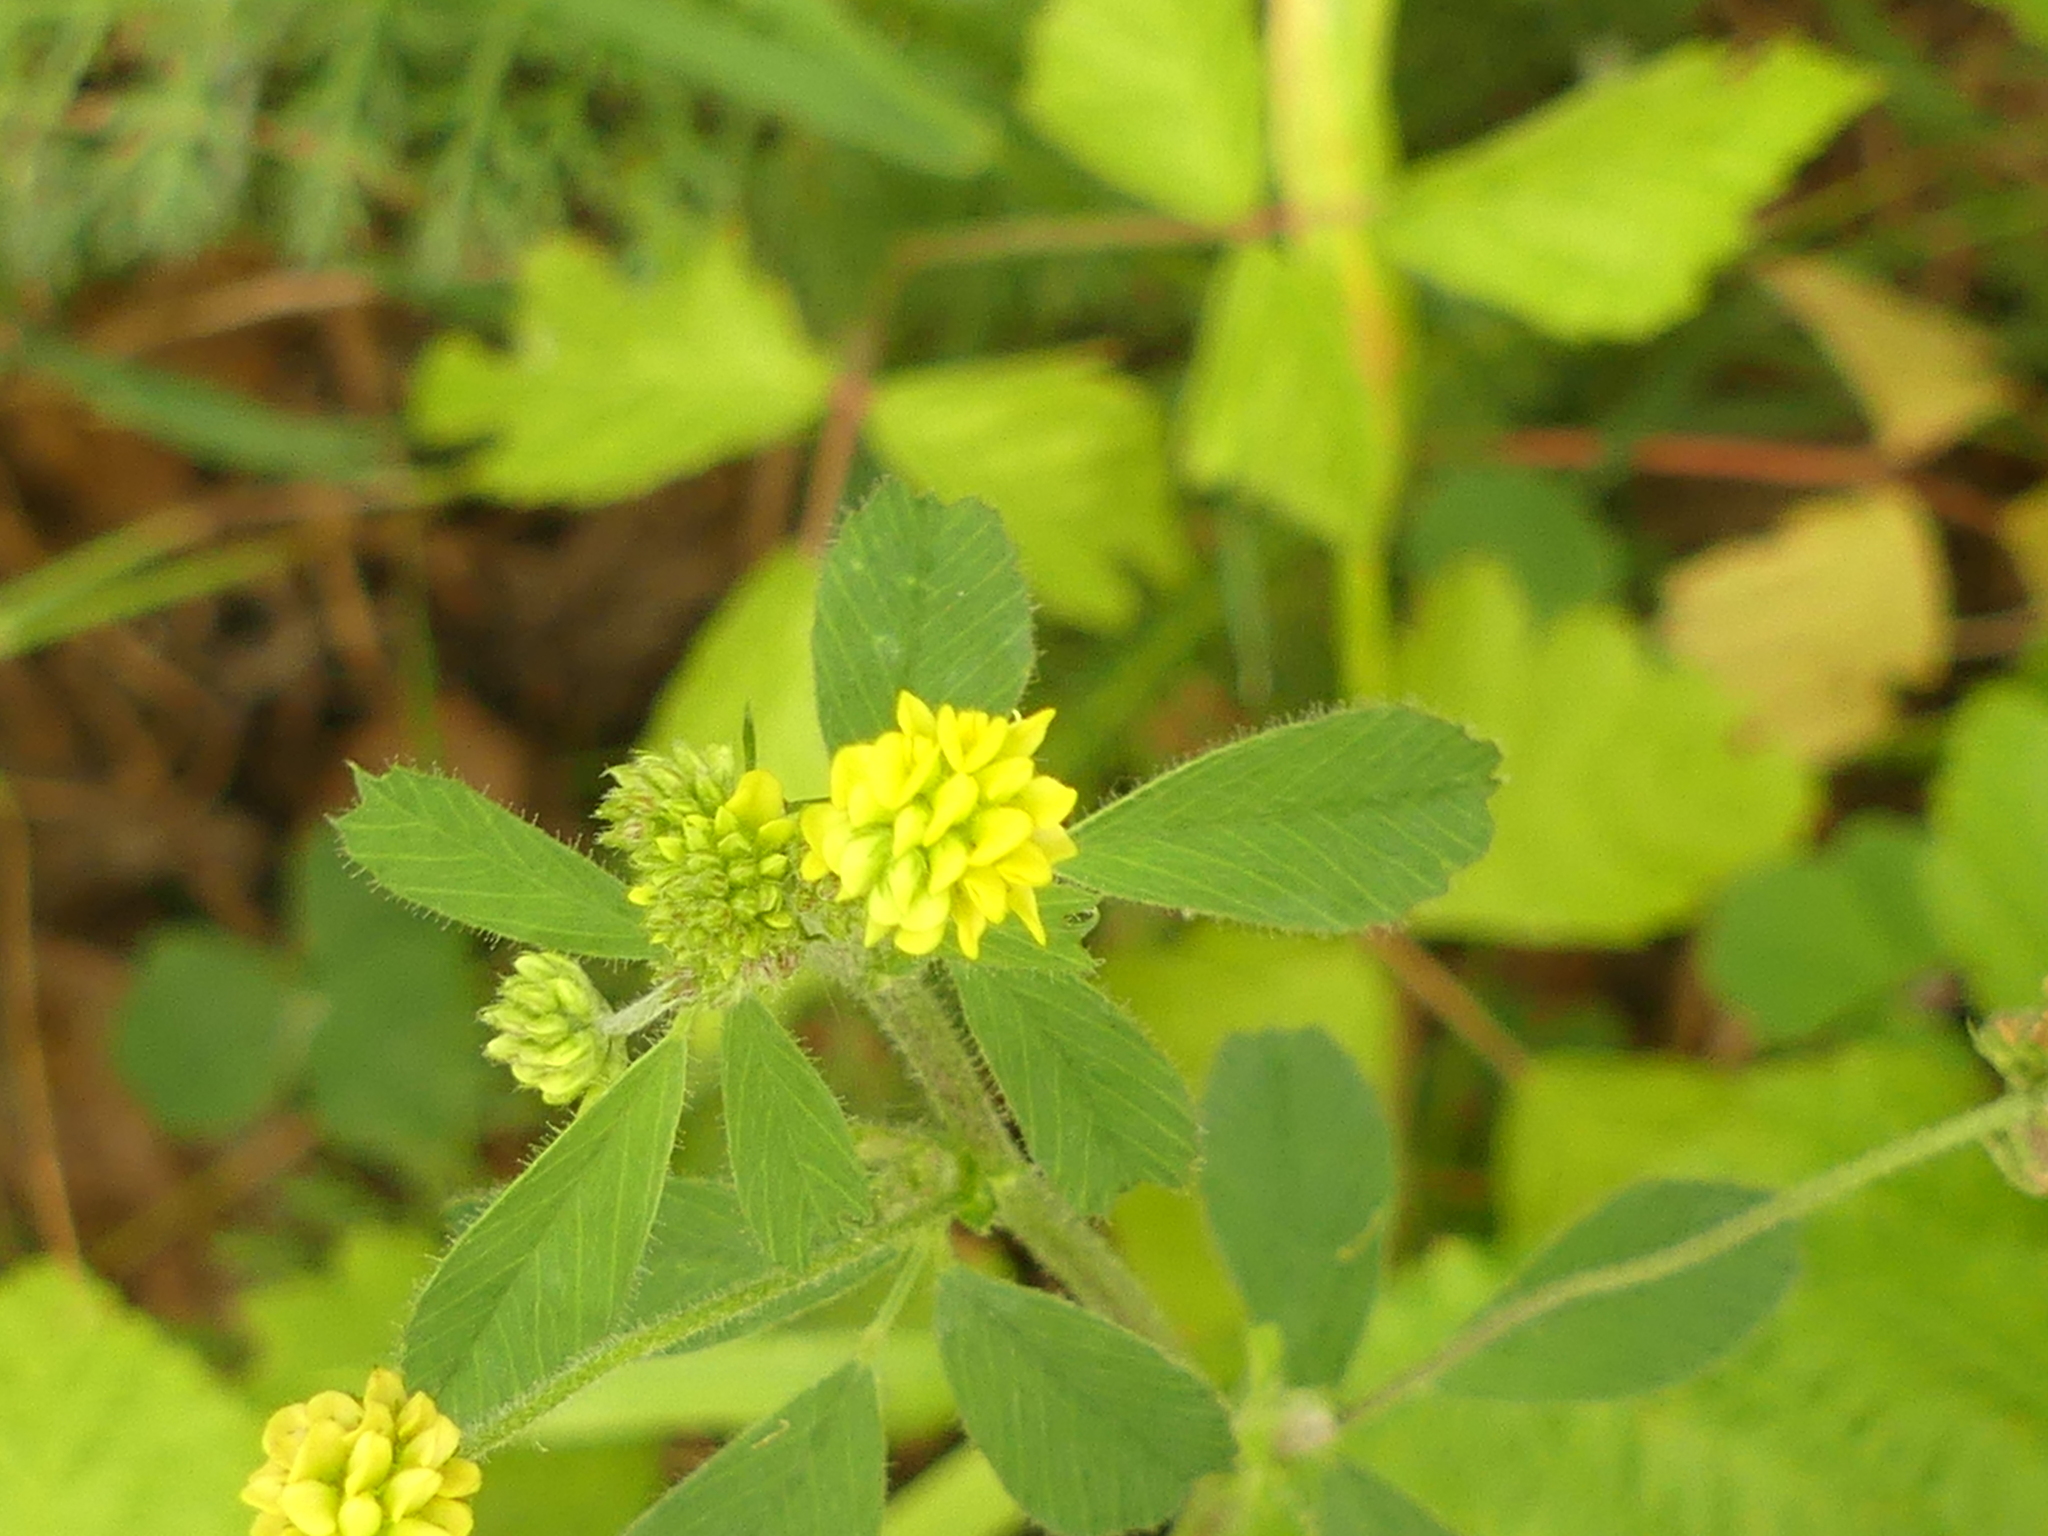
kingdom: Plantae
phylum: Tracheophyta
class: Magnoliopsida
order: Fabales
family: Fabaceae
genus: Medicago
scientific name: Medicago lupulina
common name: Black medick
